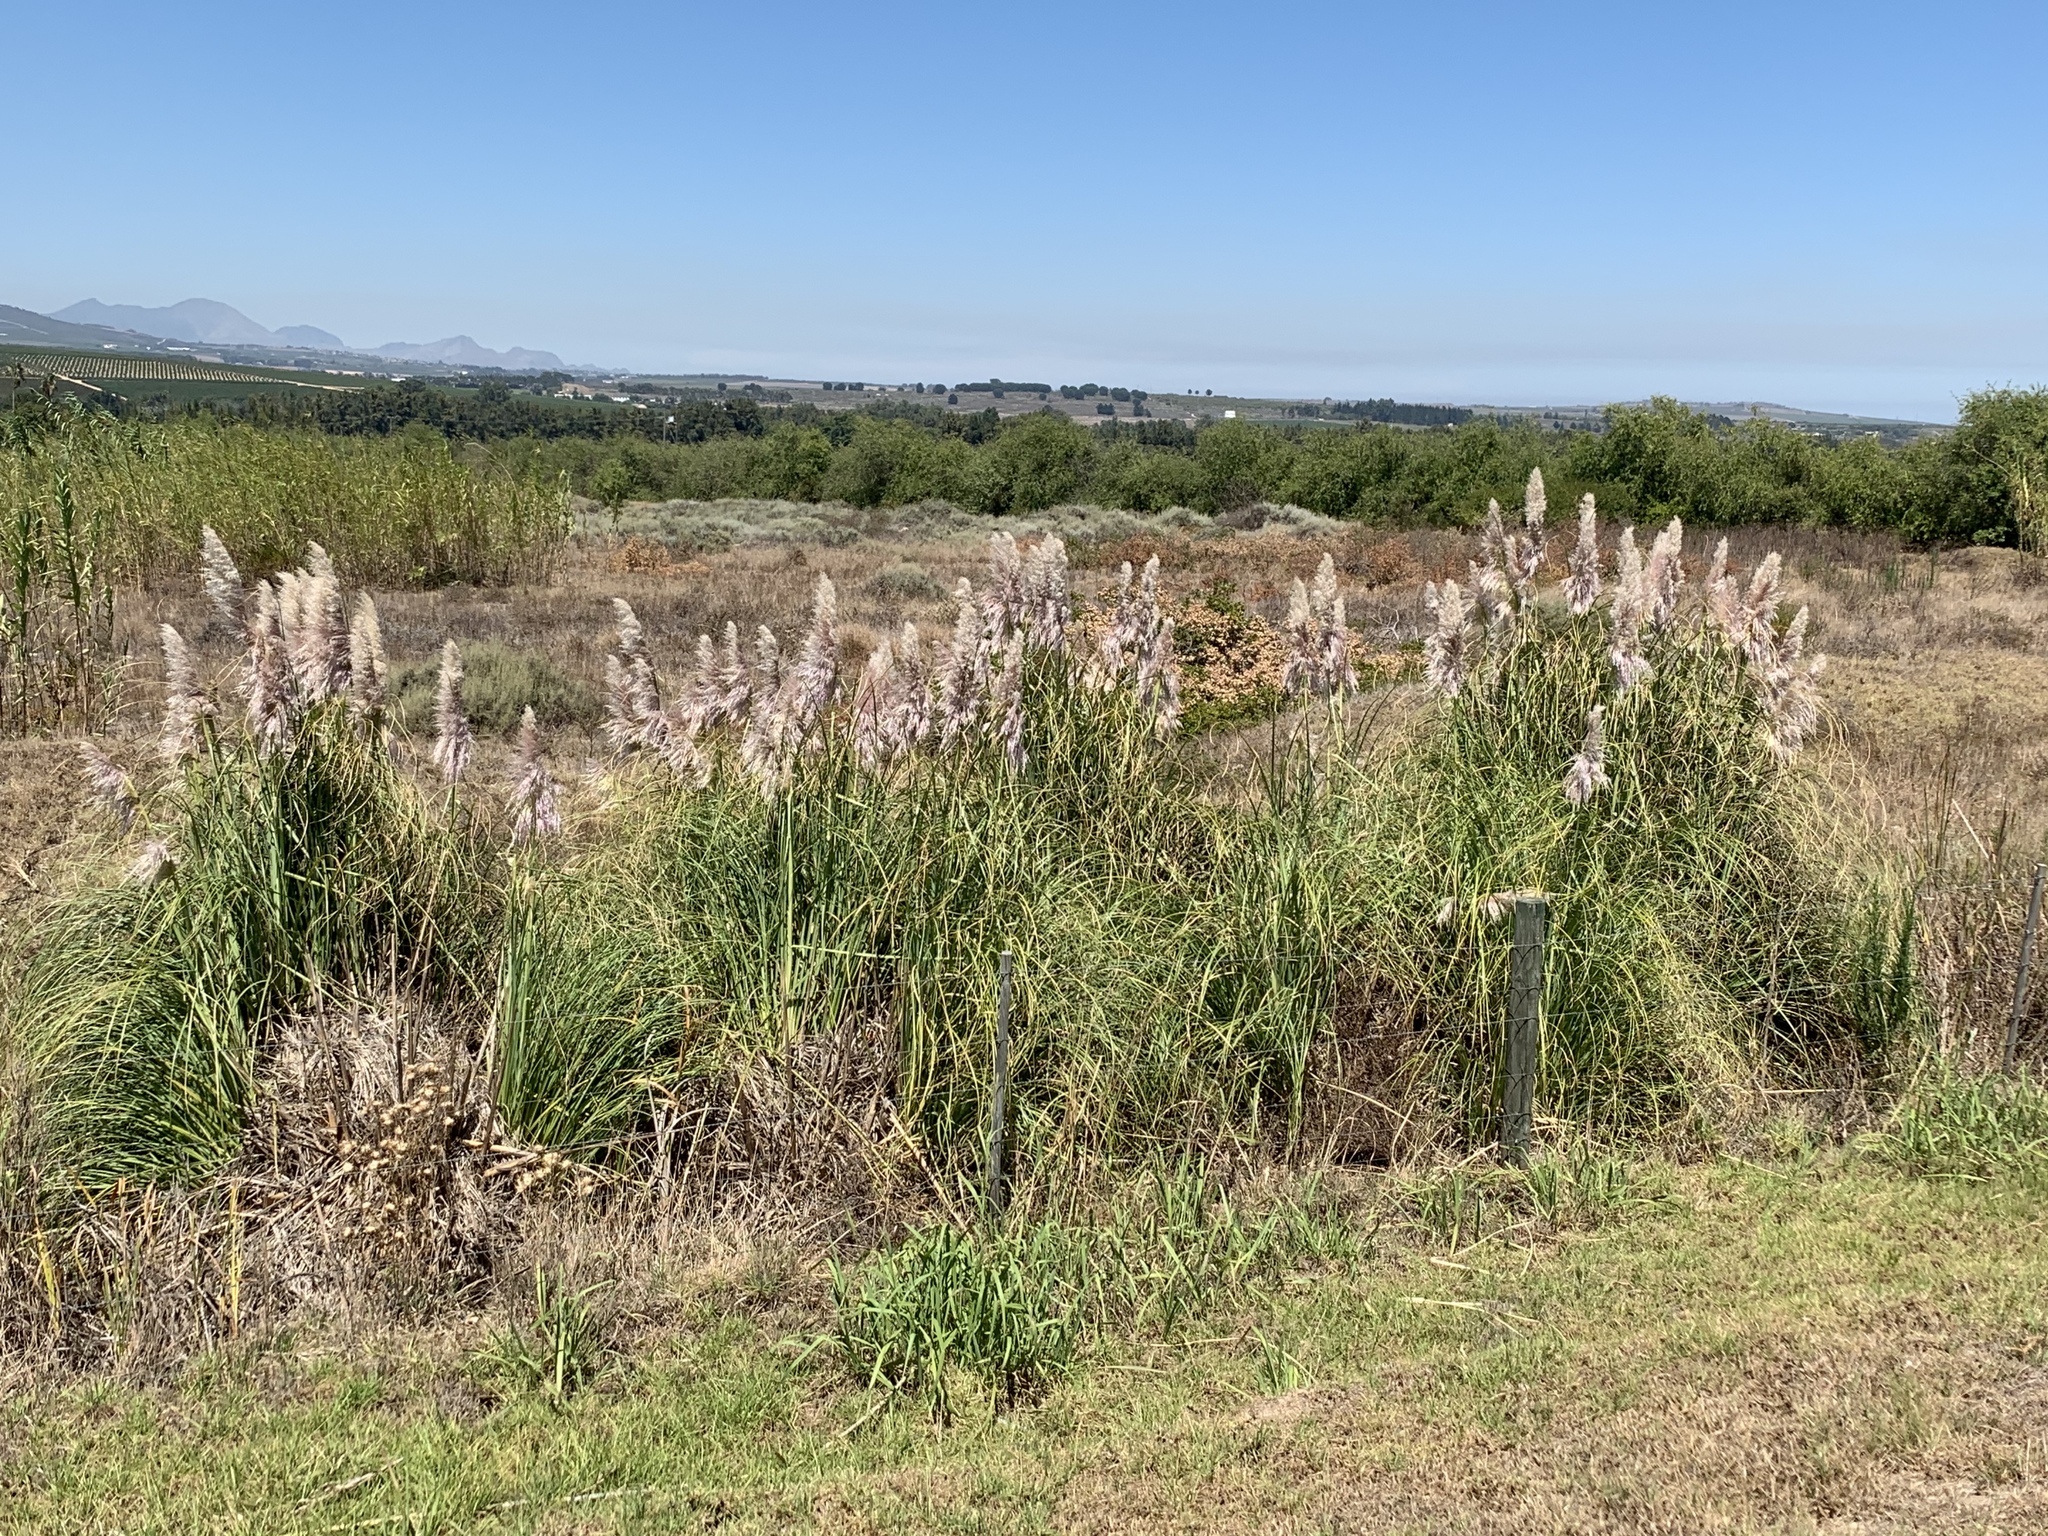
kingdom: Plantae
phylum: Tracheophyta
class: Liliopsida
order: Poales
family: Poaceae
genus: Cortaderia
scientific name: Cortaderia selloana
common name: Uruguayan pampas grass
